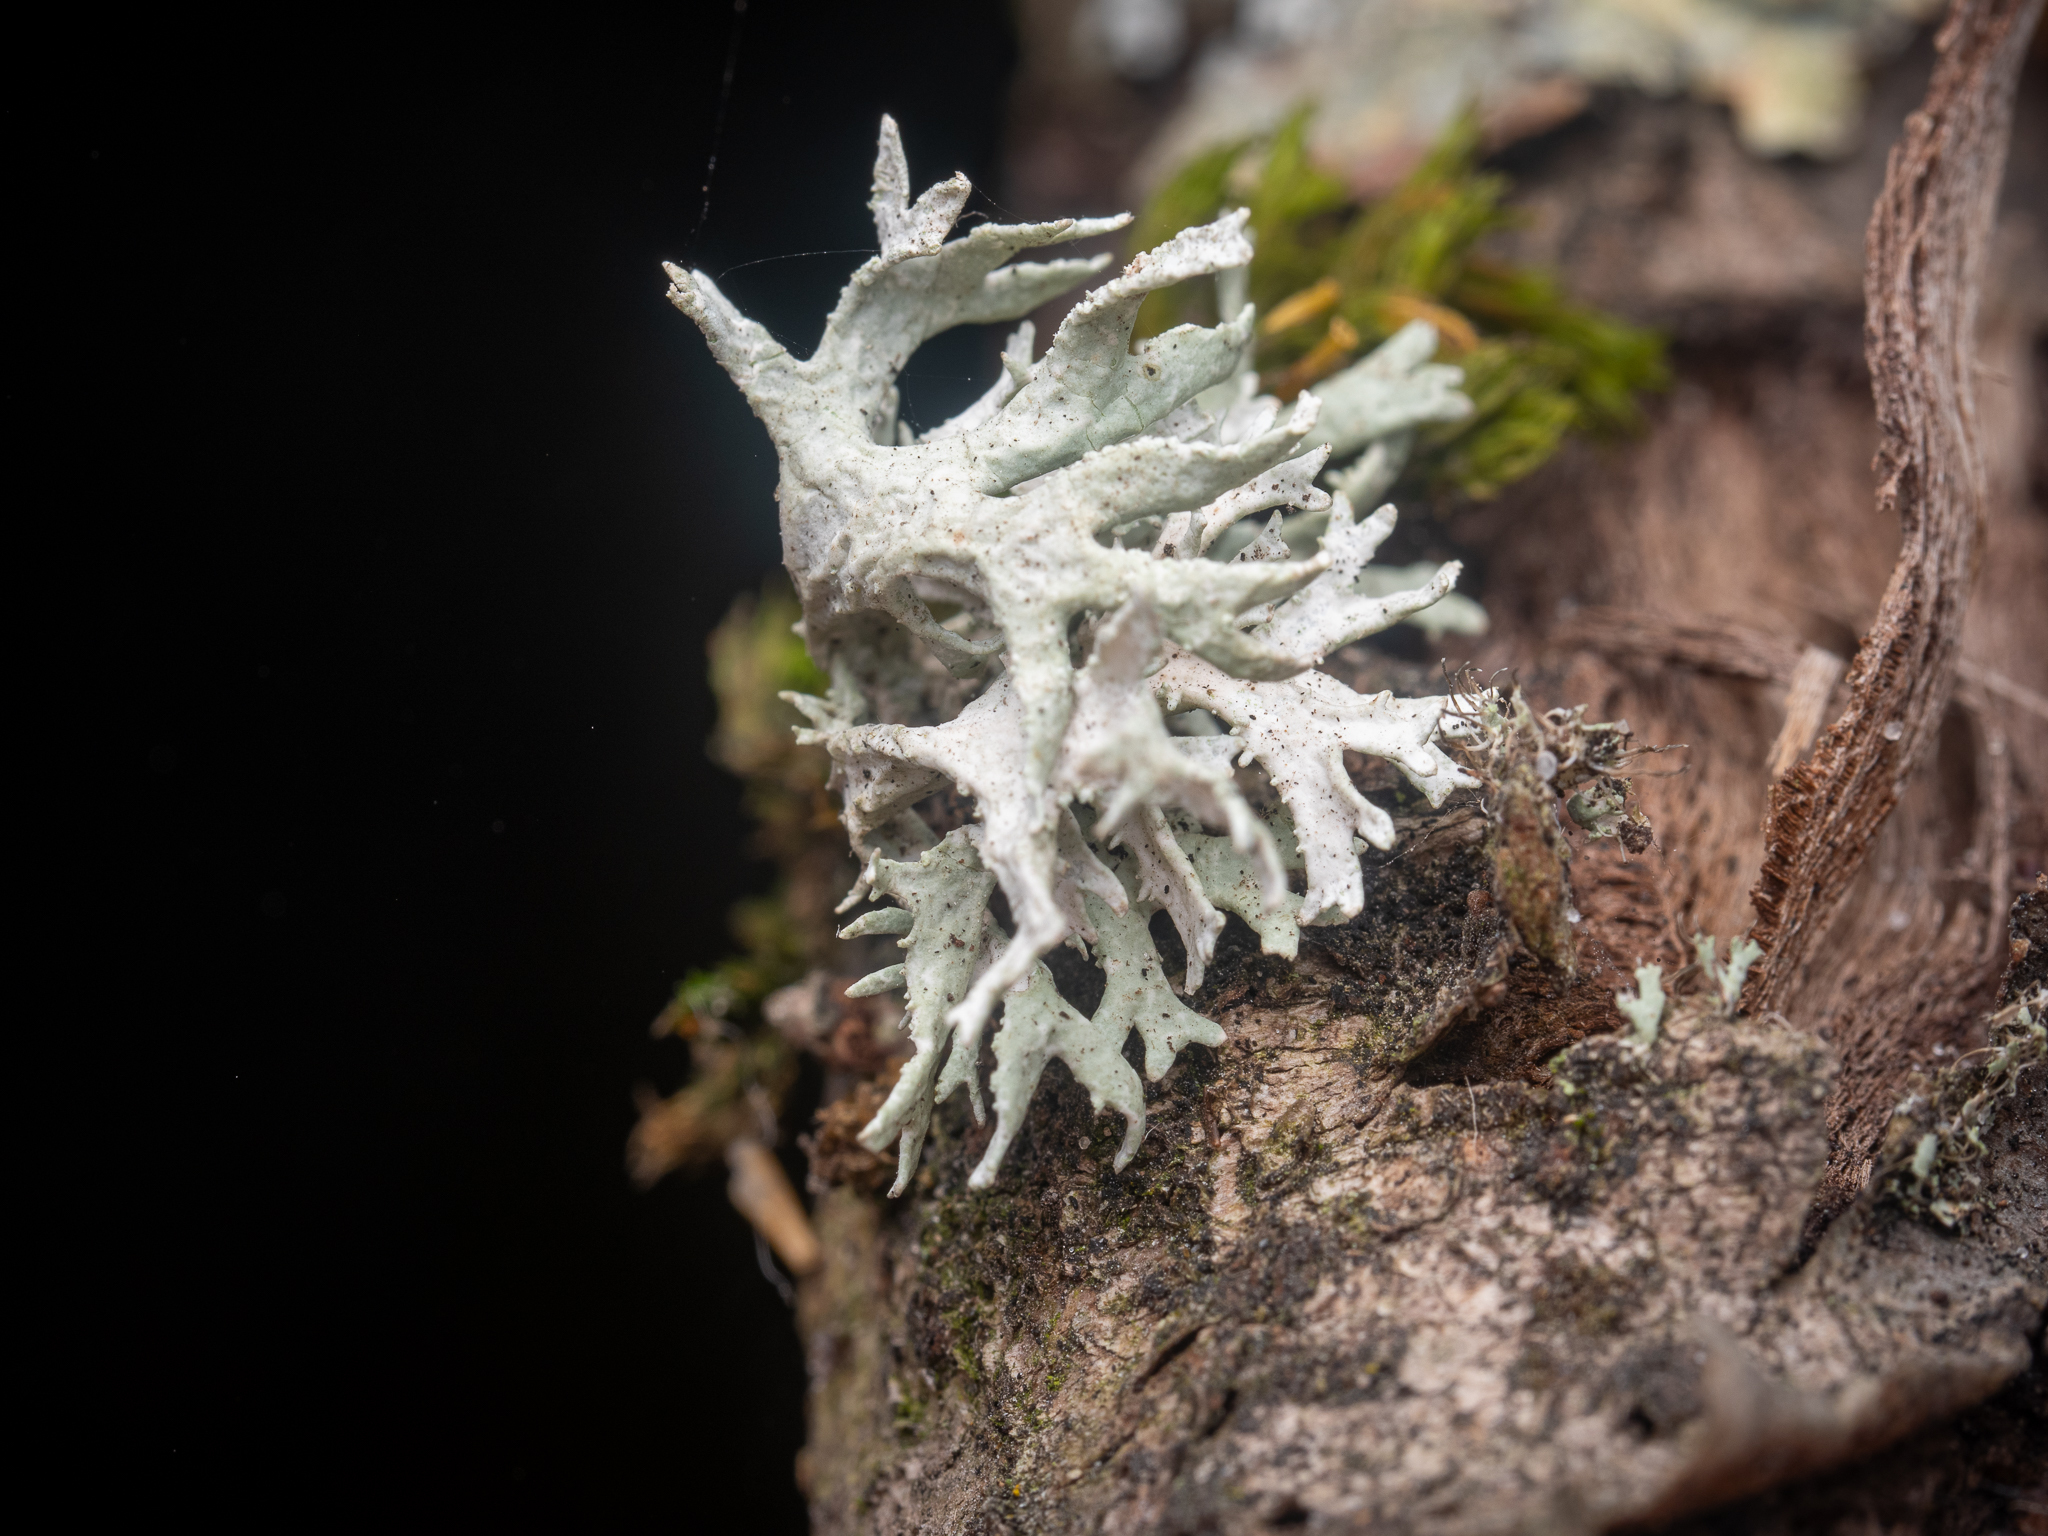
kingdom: Fungi
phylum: Ascomycota
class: Lecanoromycetes
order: Lecanorales
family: Parmeliaceae
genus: Evernia
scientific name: Evernia prunastri
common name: Oak moss
